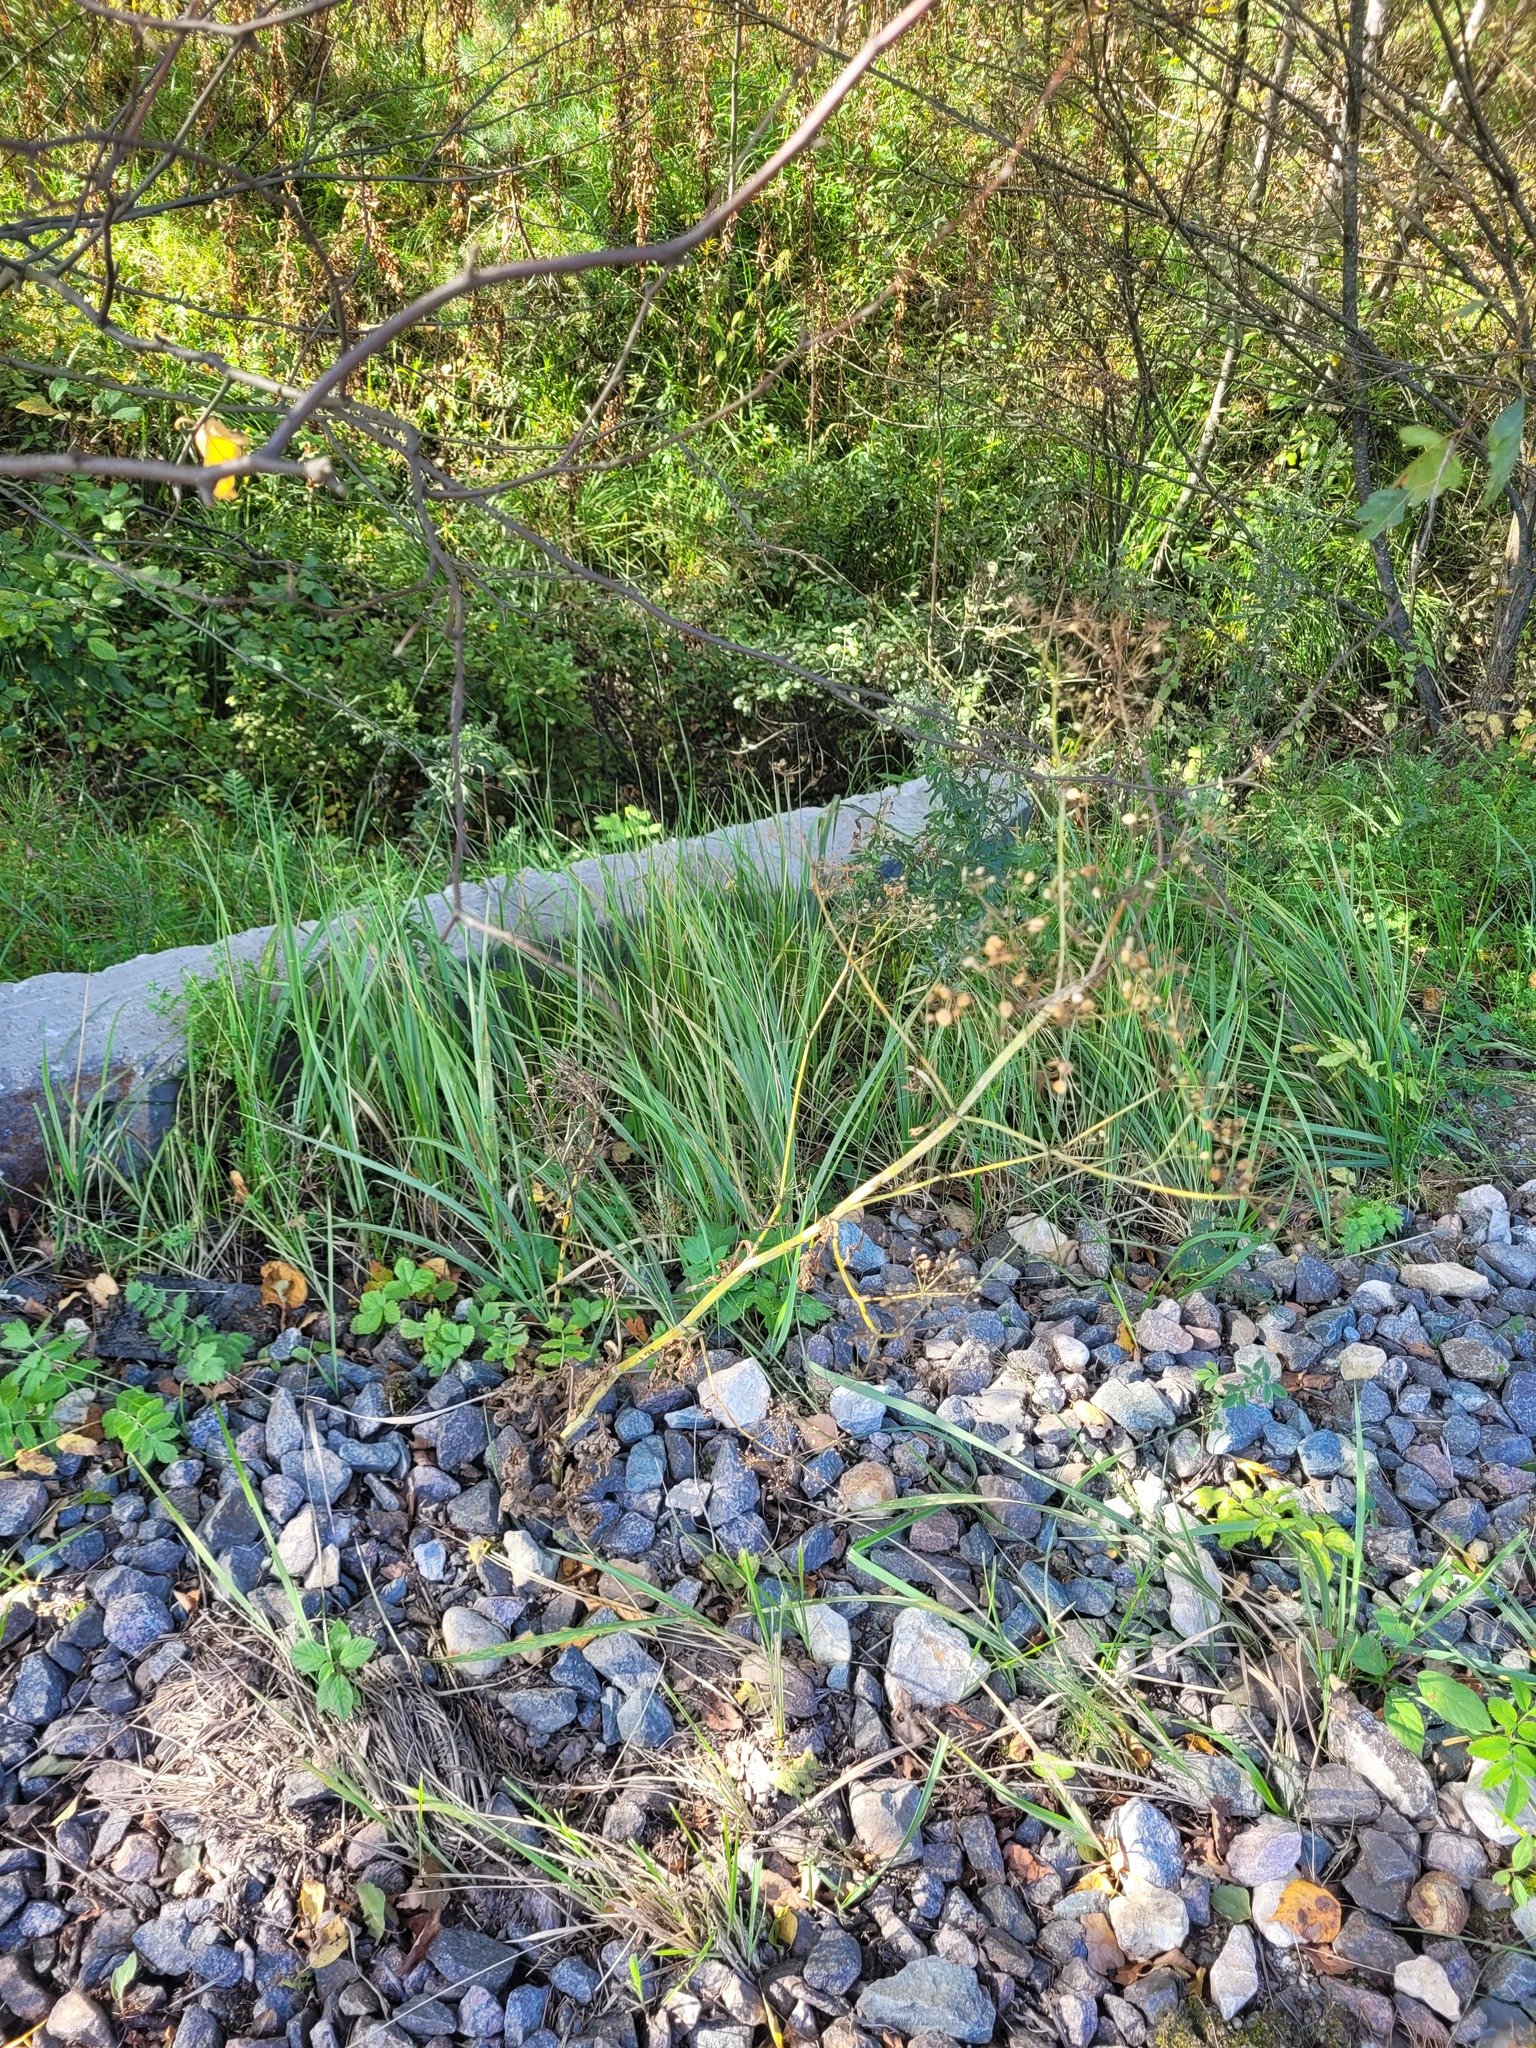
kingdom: Plantae
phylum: Tracheophyta
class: Magnoliopsida
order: Apiales
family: Apiaceae
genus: Pastinaca
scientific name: Pastinaca sativa
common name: Wild parsnip
